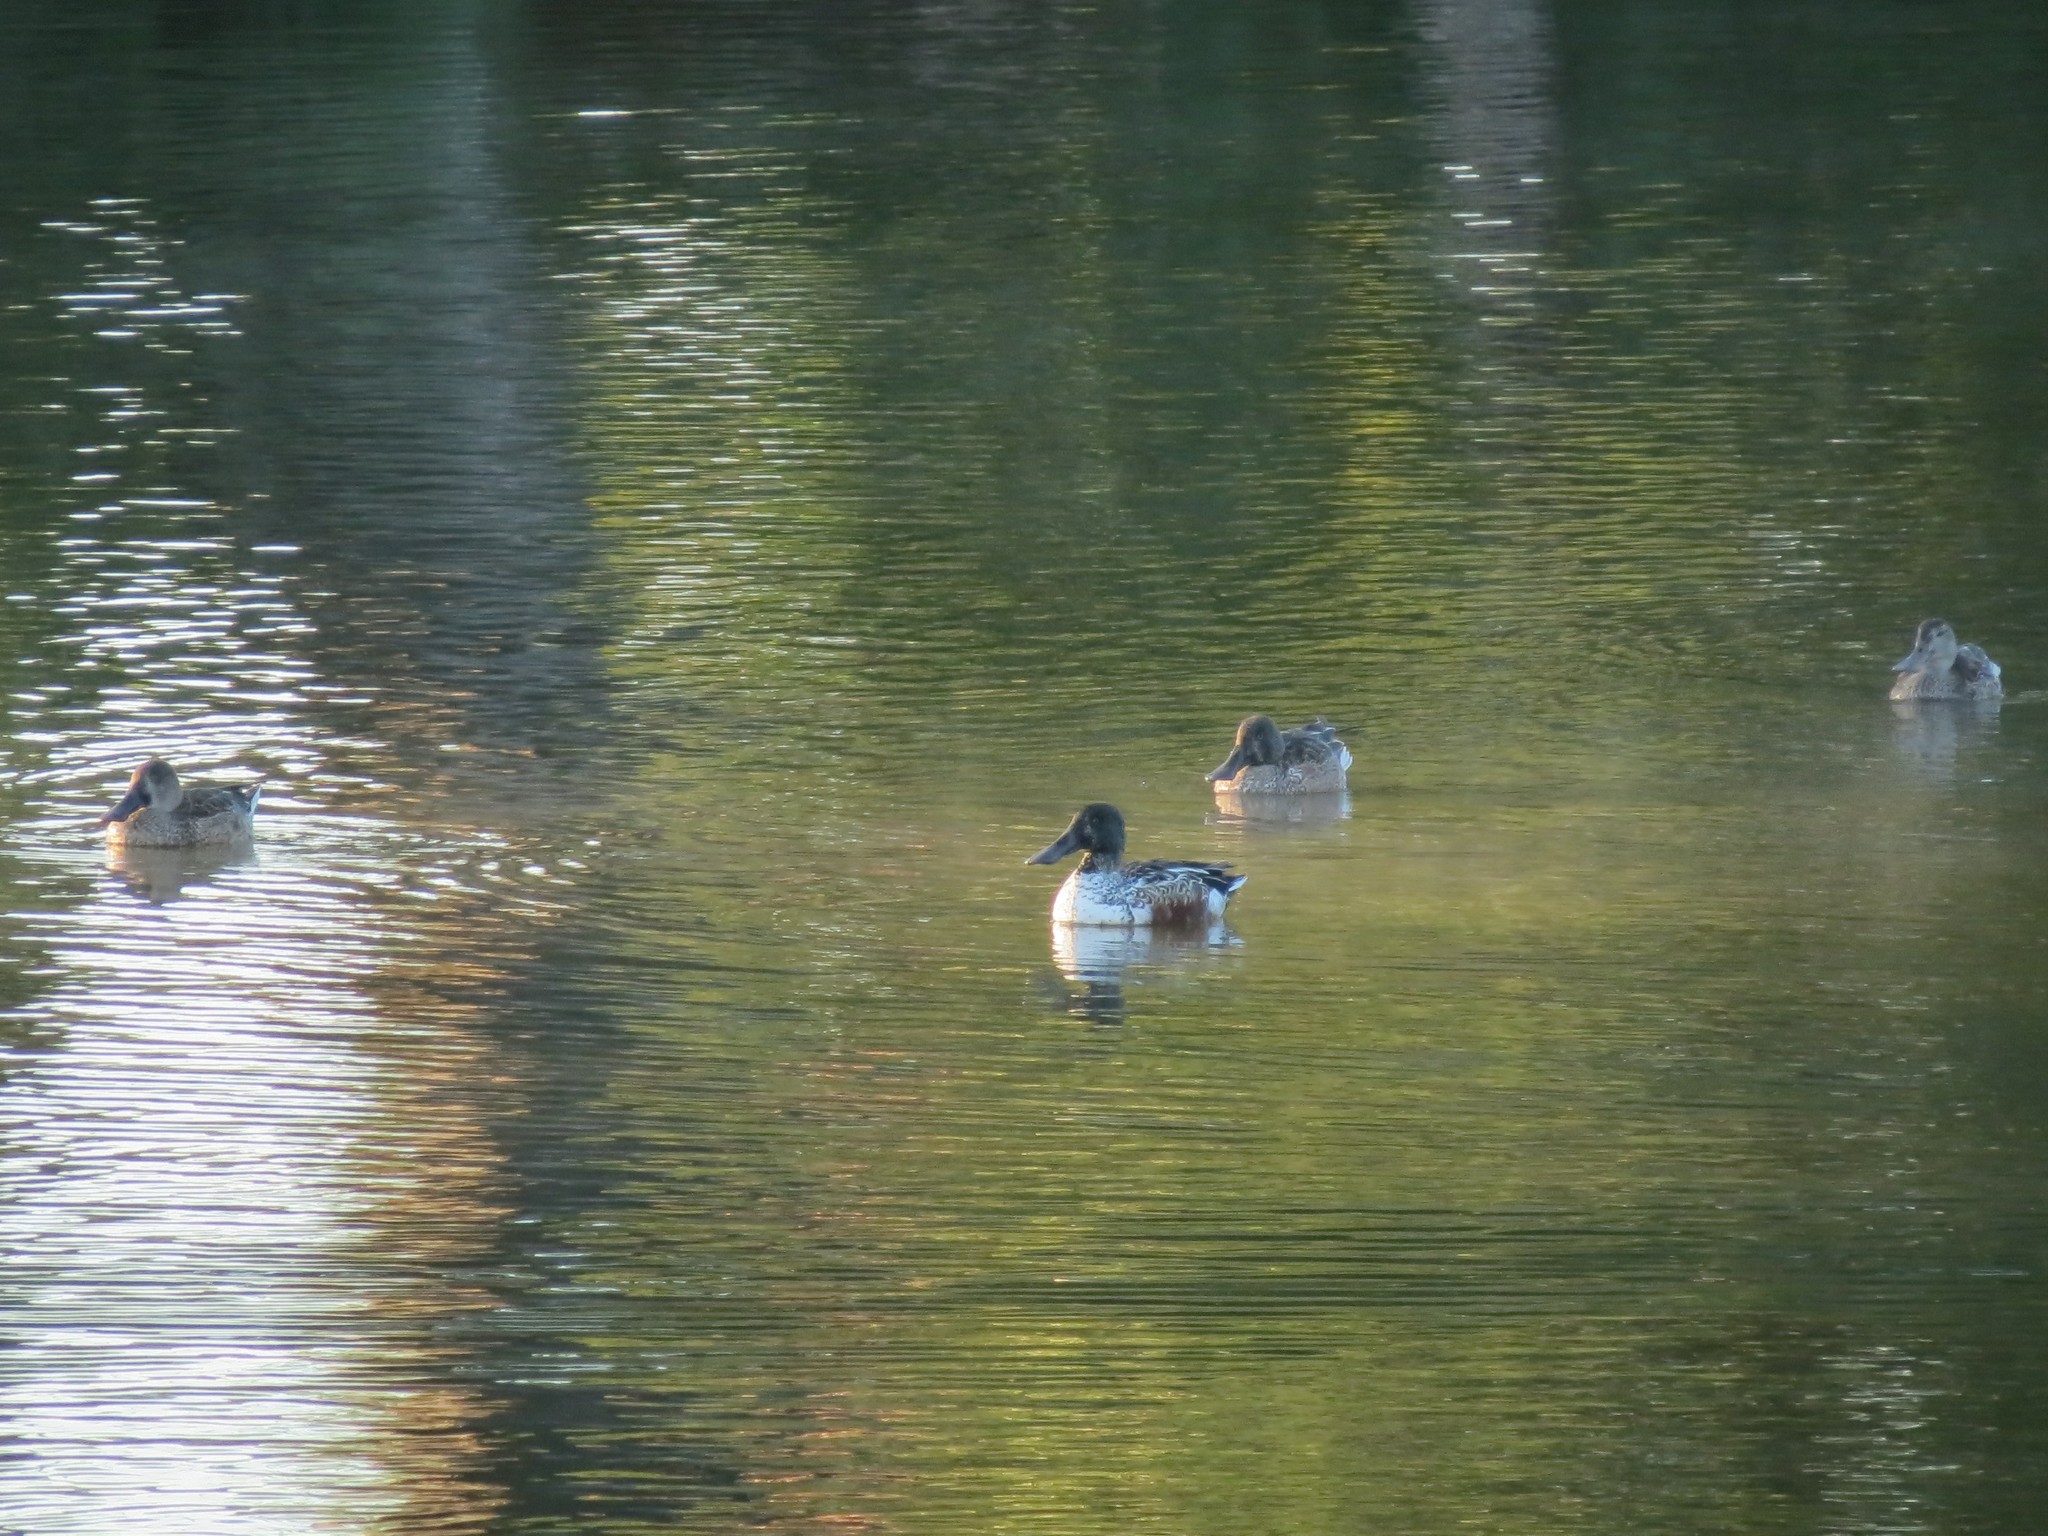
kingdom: Animalia
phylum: Chordata
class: Aves
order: Anseriformes
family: Anatidae
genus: Spatula
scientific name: Spatula clypeata
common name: Northern shoveler
